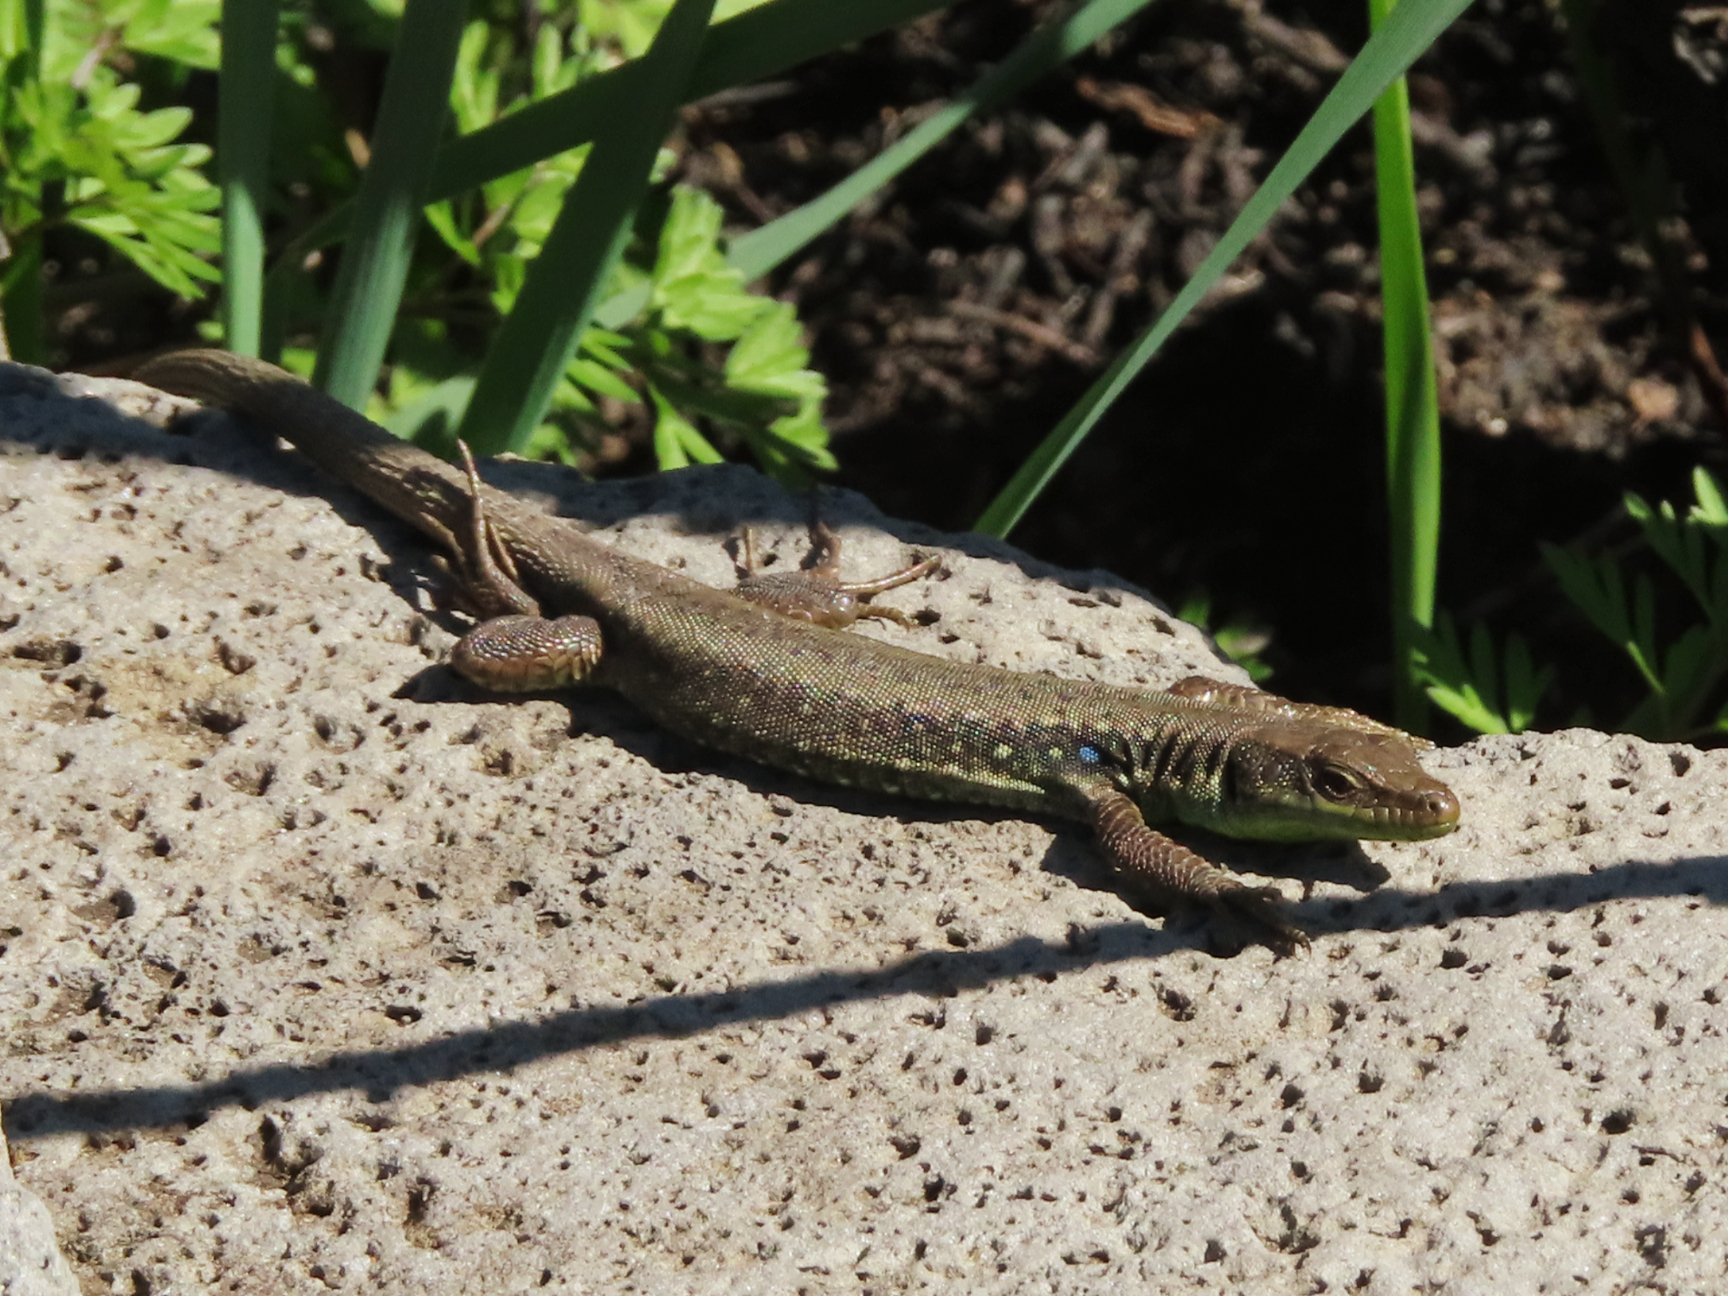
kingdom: Animalia
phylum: Chordata
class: Squamata
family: Lacertidae
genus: Darevskia
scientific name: Darevskia raddei
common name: Radde's lizard
